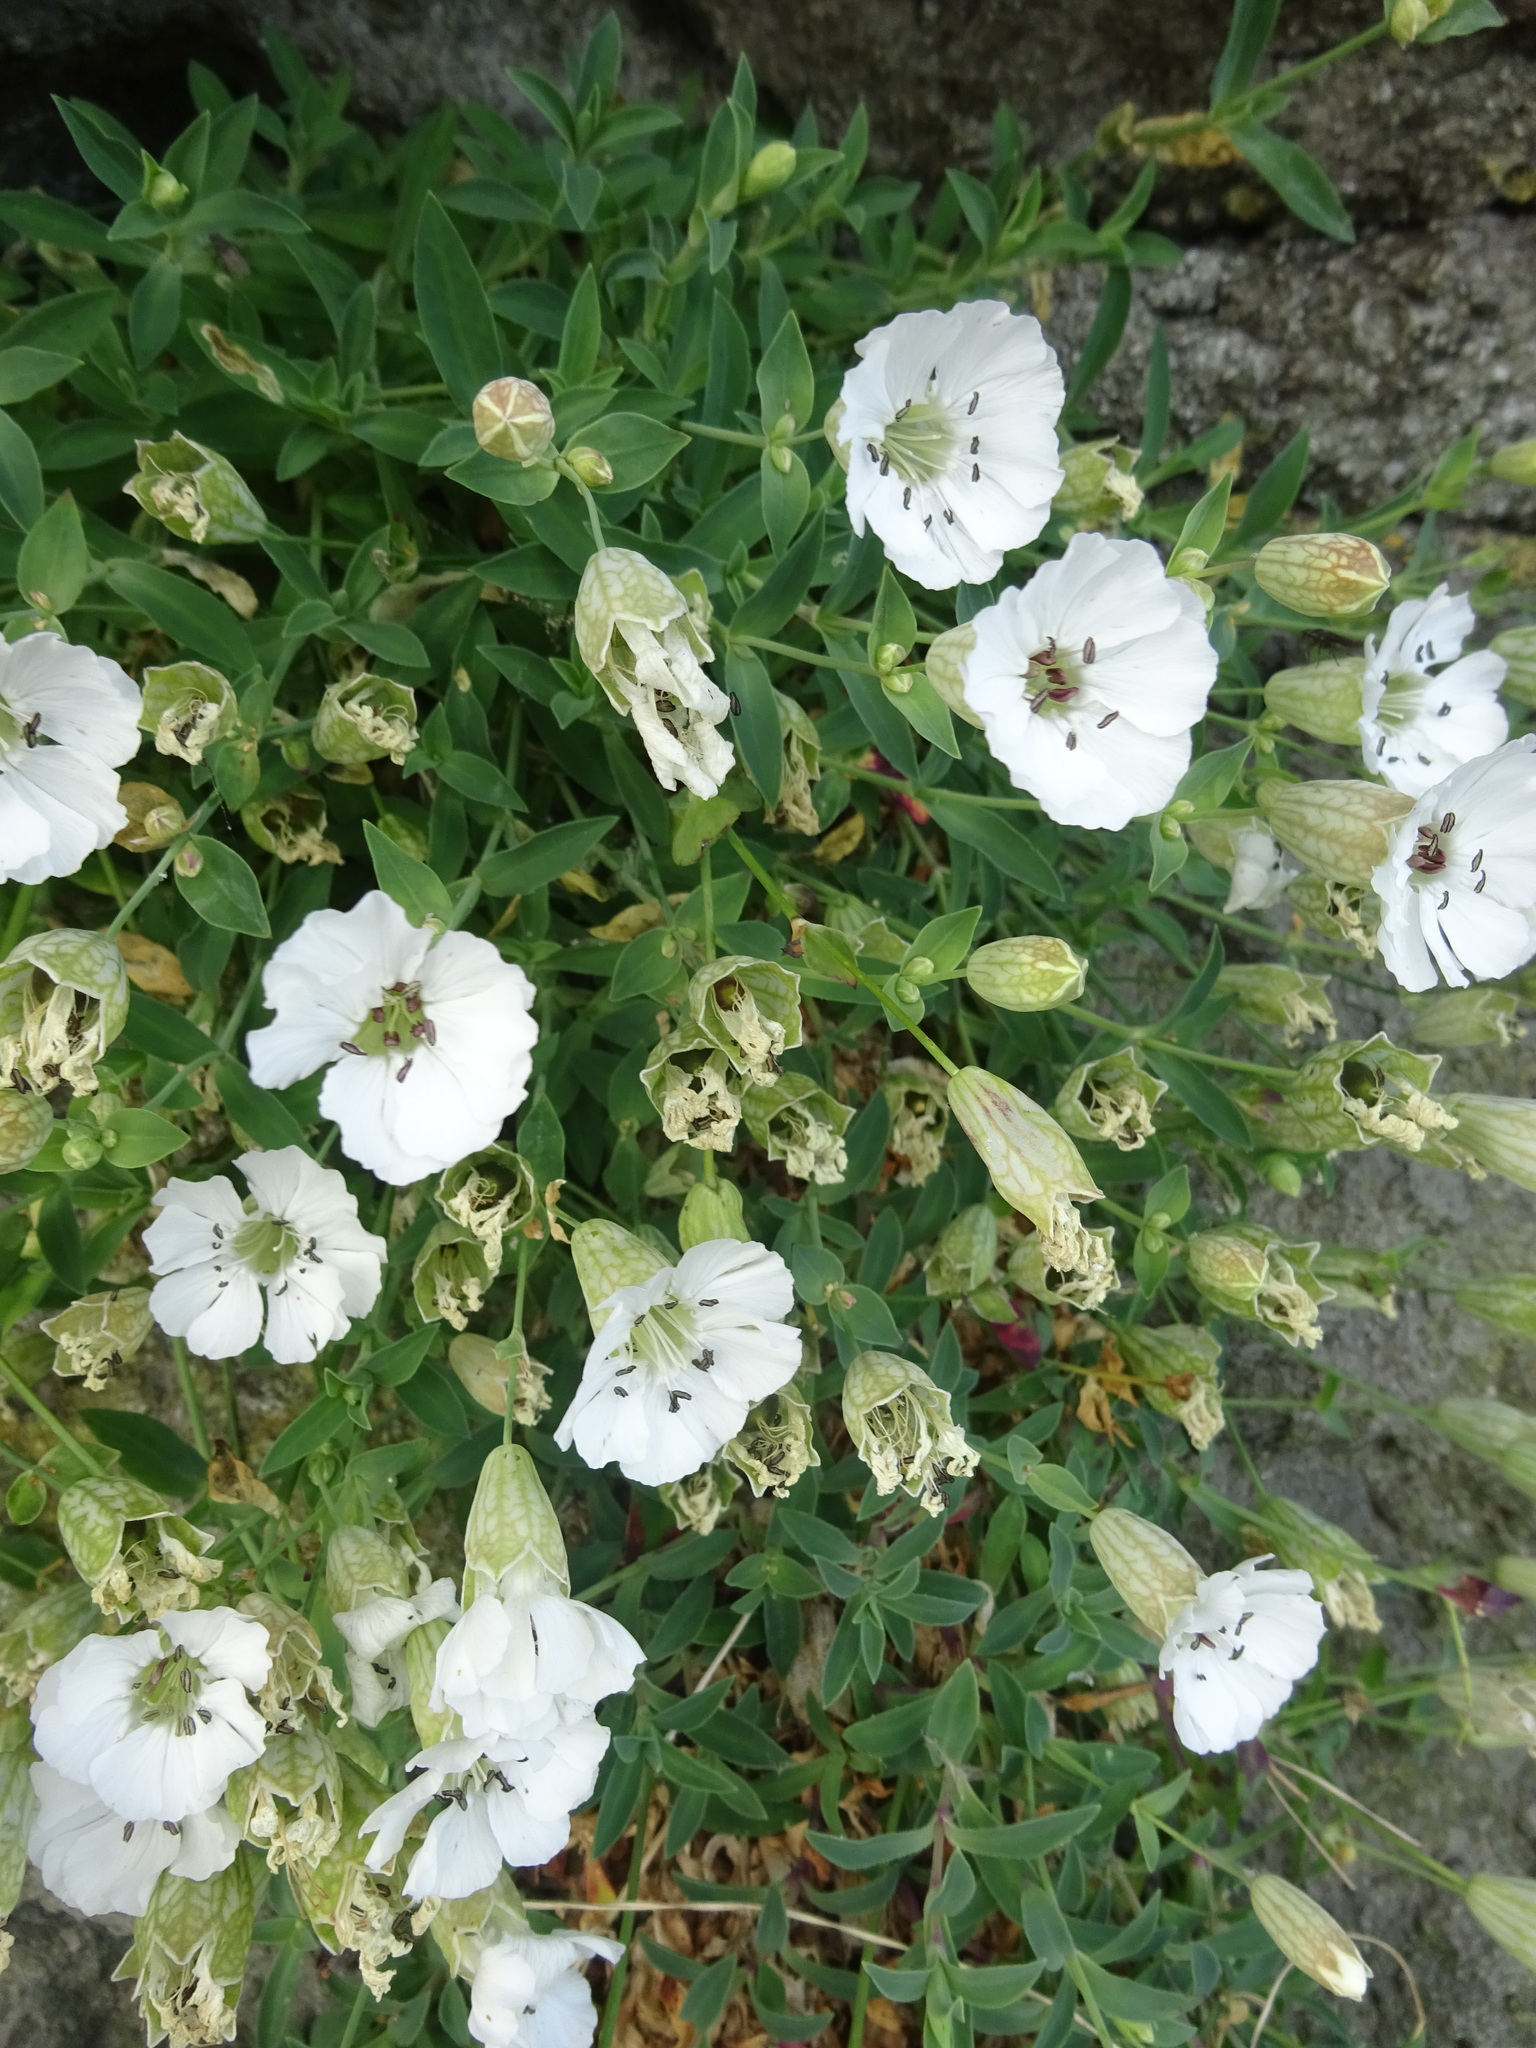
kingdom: Plantae
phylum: Tracheophyta
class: Magnoliopsida
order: Caryophyllales
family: Caryophyllaceae
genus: Silene
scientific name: Silene uniflora
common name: Sea campion
